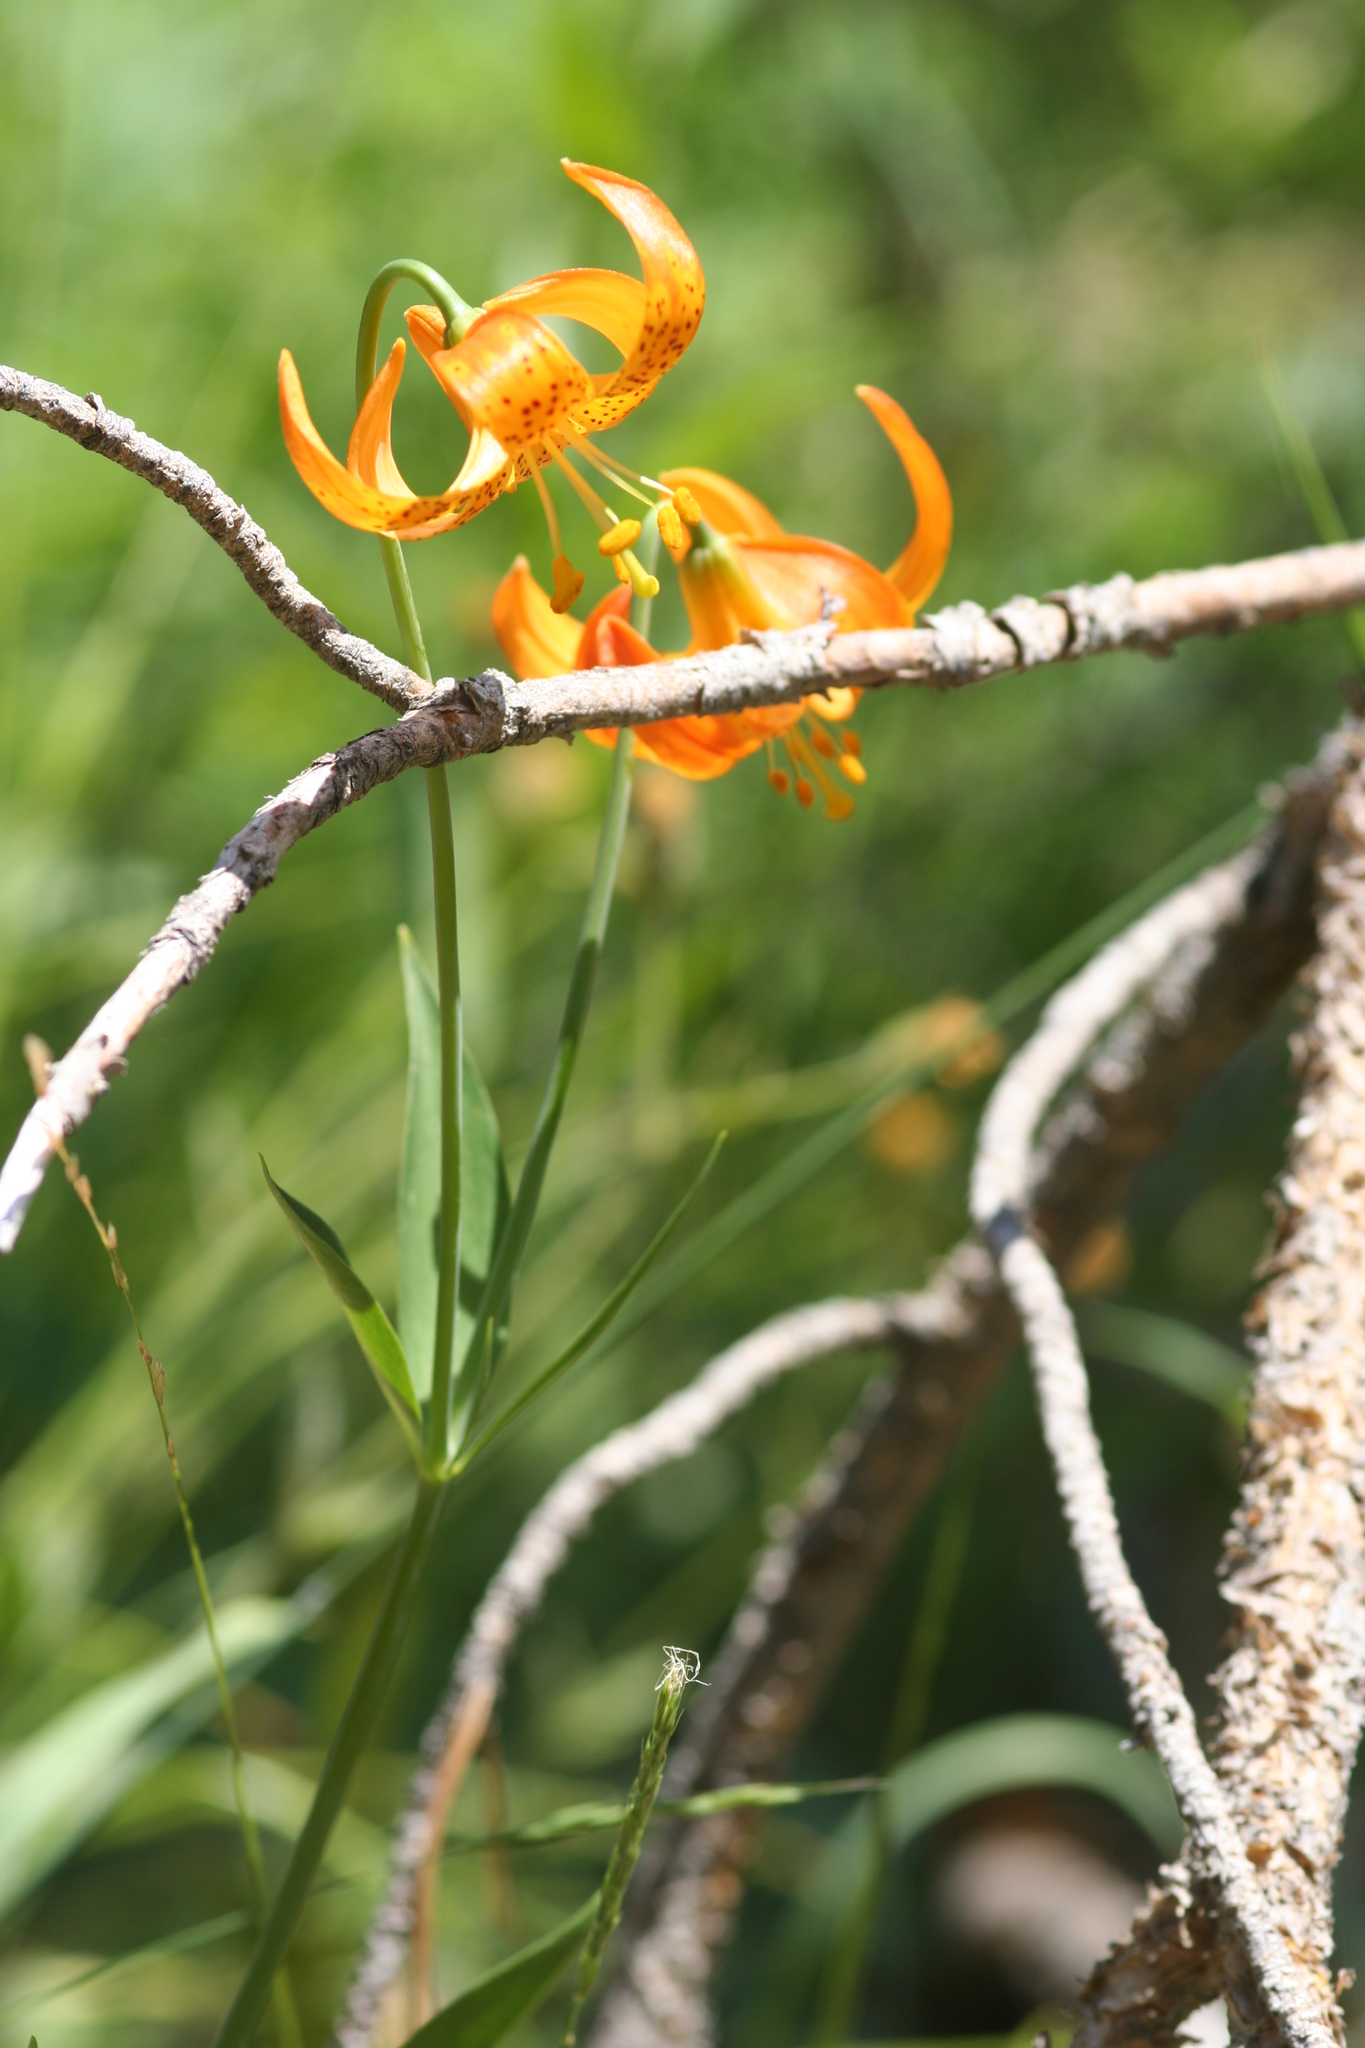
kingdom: Plantae
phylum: Tracheophyta
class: Liliopsida
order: Liliales
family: Liliaceae
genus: Lilium
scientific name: Lilium pardalinum
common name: Panther lily
